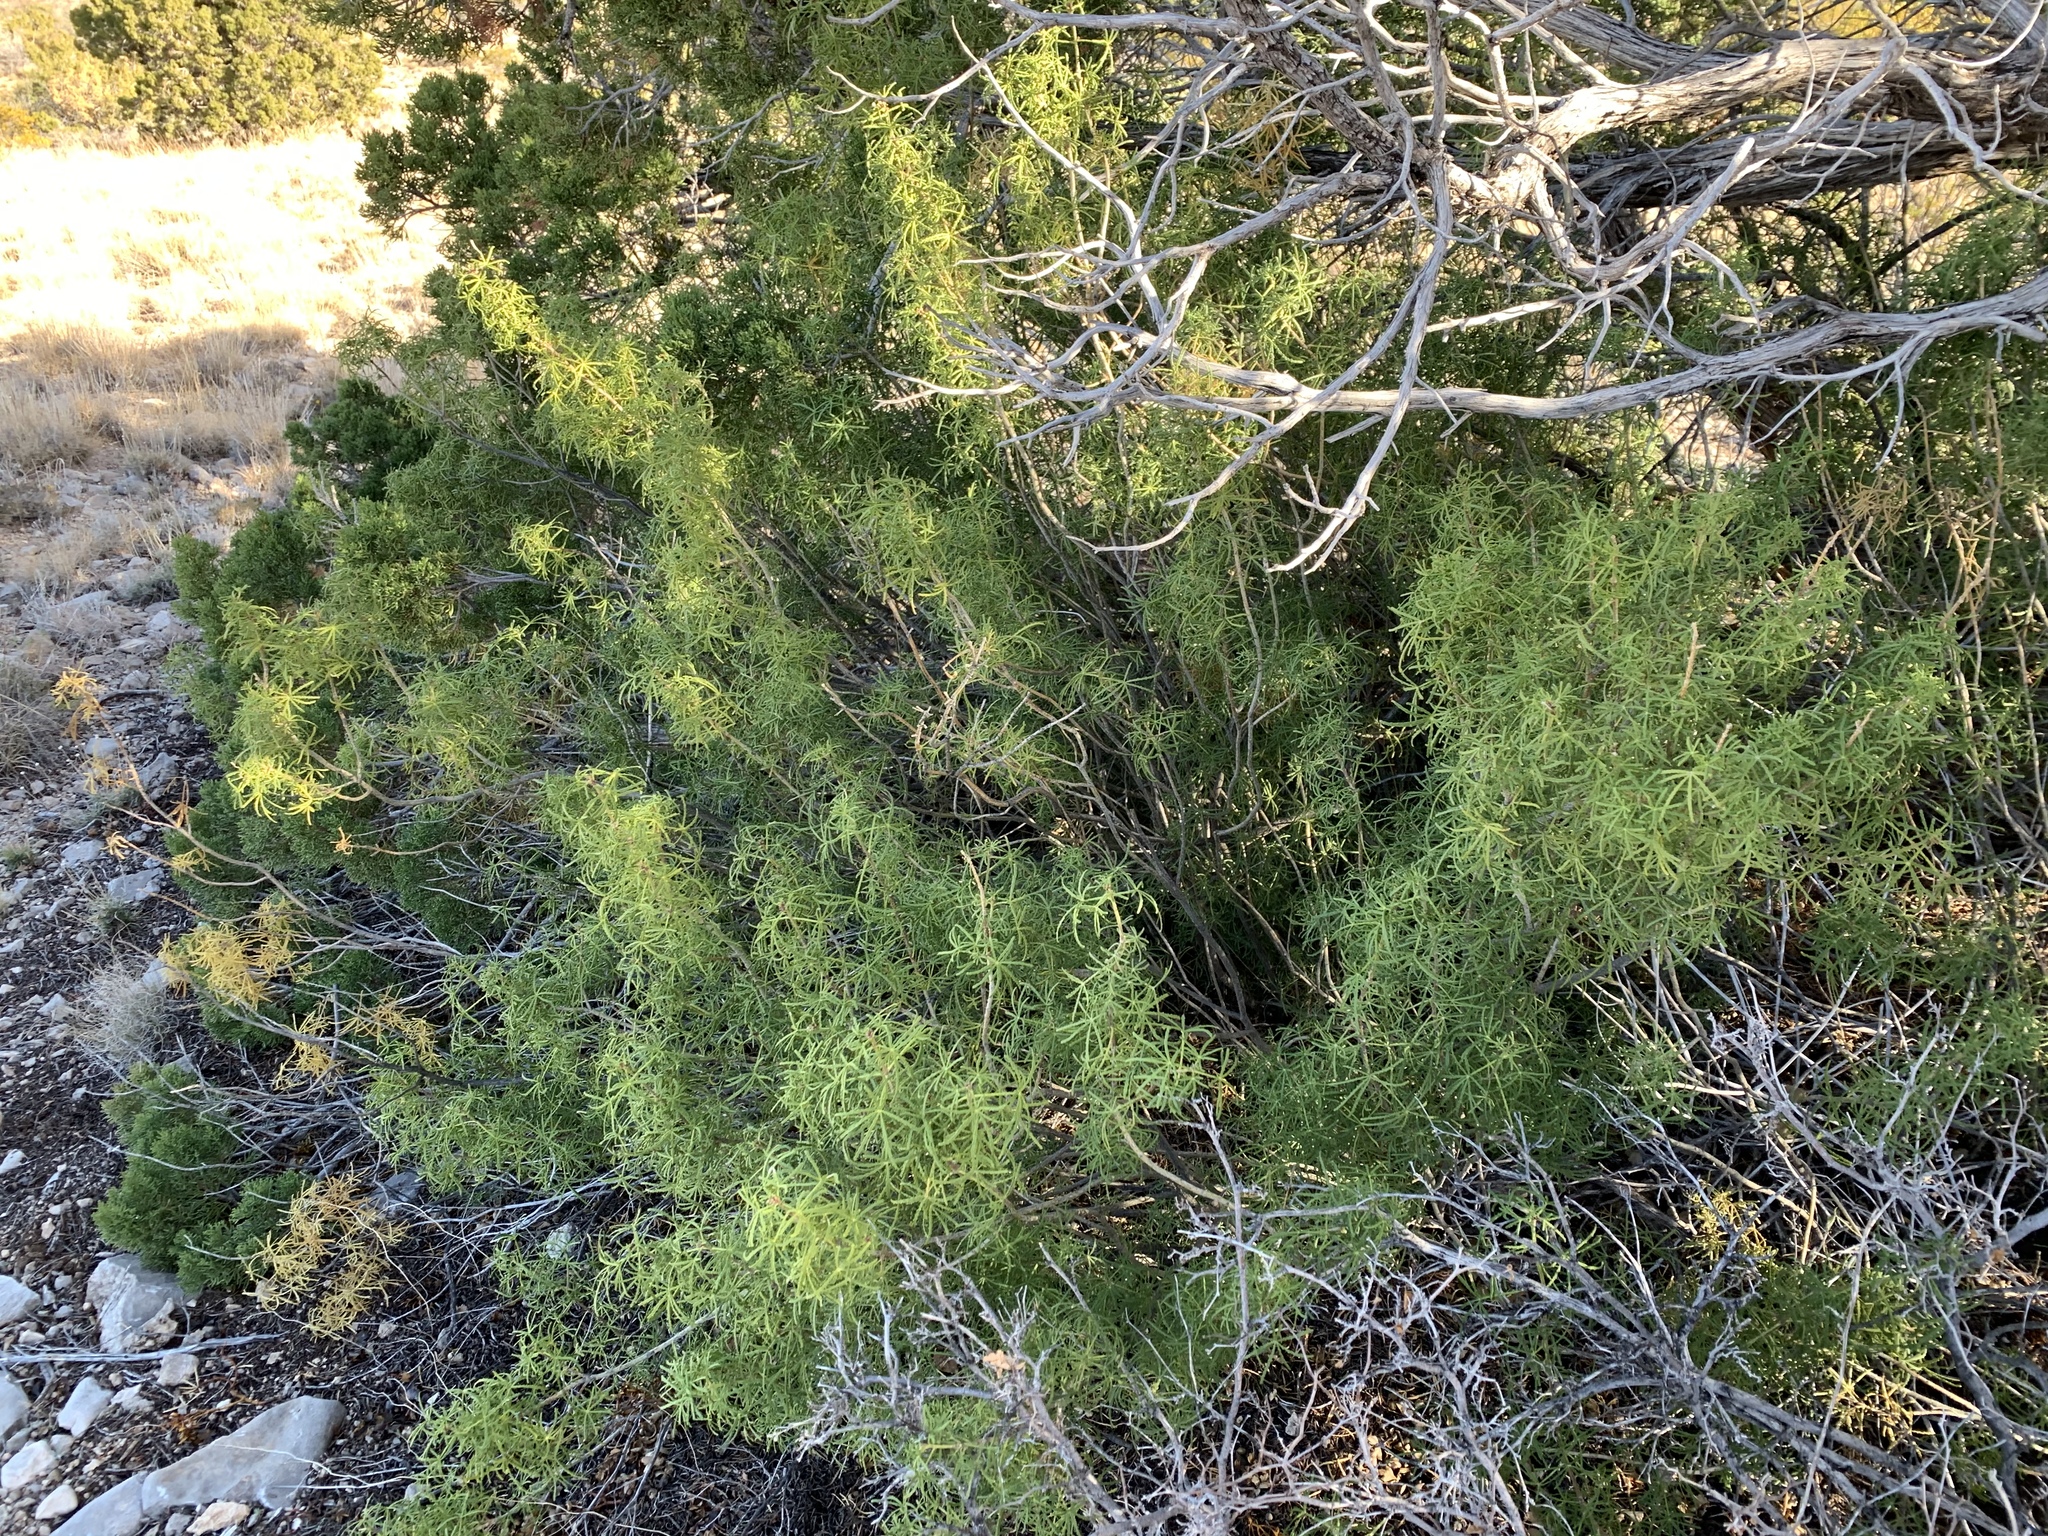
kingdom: Plantae
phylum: Tracheophyta
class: Magnoliopsida
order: Sapindales
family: Rutaceae
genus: Choisya
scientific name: Choisya dumosa
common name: Mexican-orange
